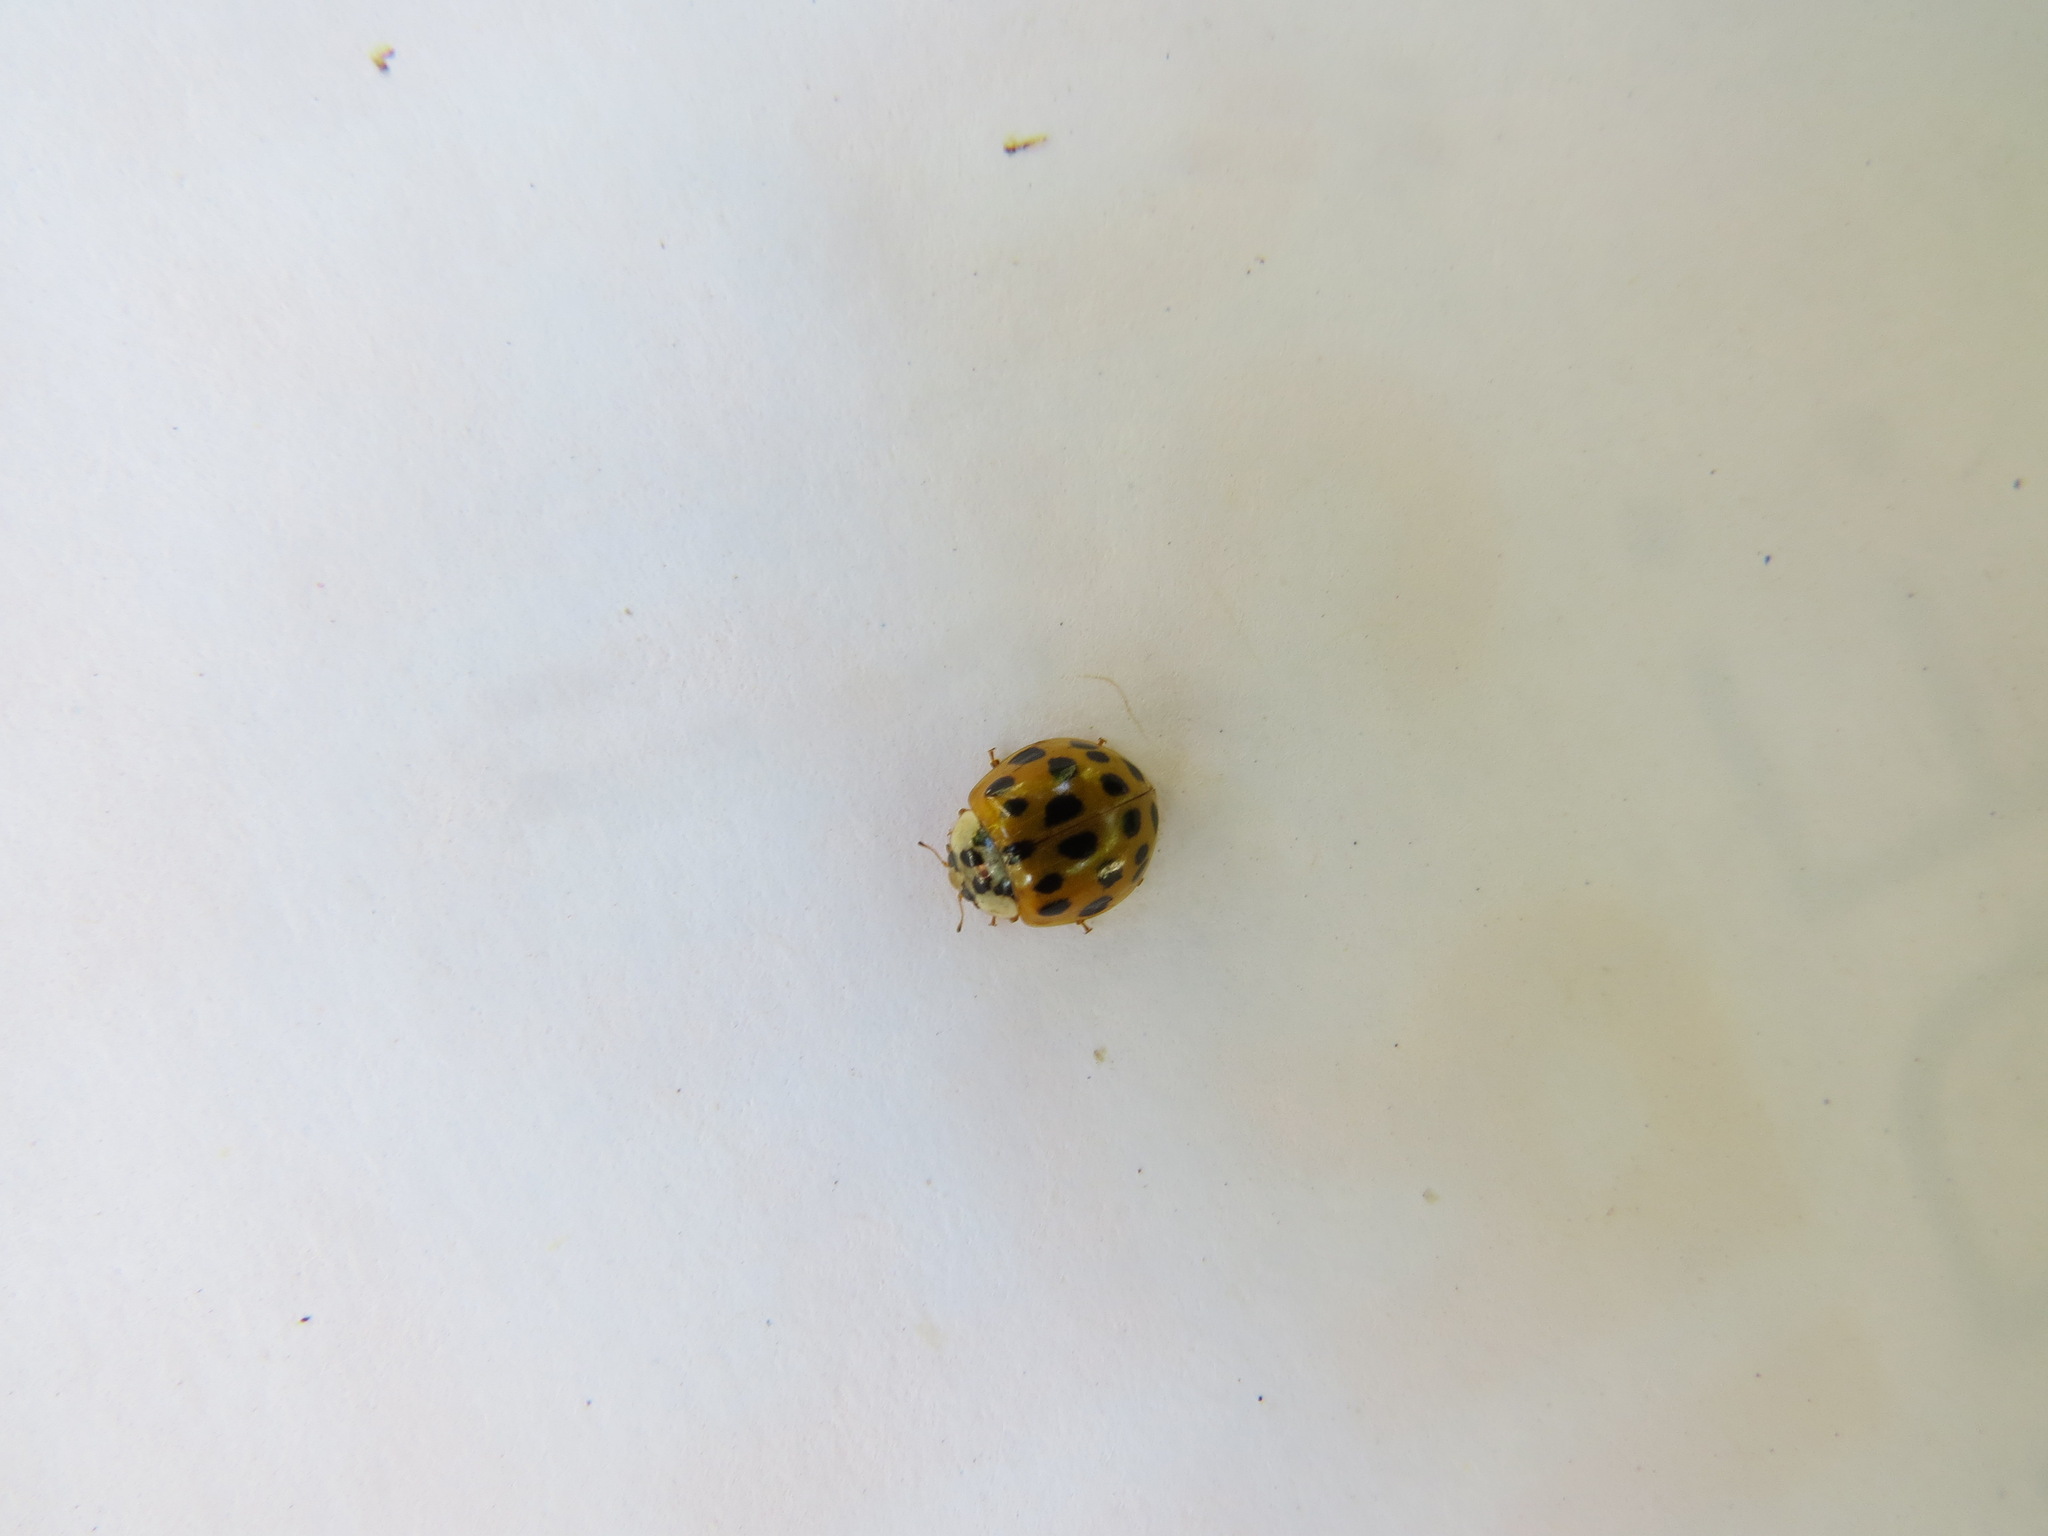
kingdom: Animalia
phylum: Arthropoda
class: Insecta
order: Coleoptera
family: Coccinellidae
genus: Harmonia
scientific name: Harmonia axyridis
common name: Harlequin ladybird
